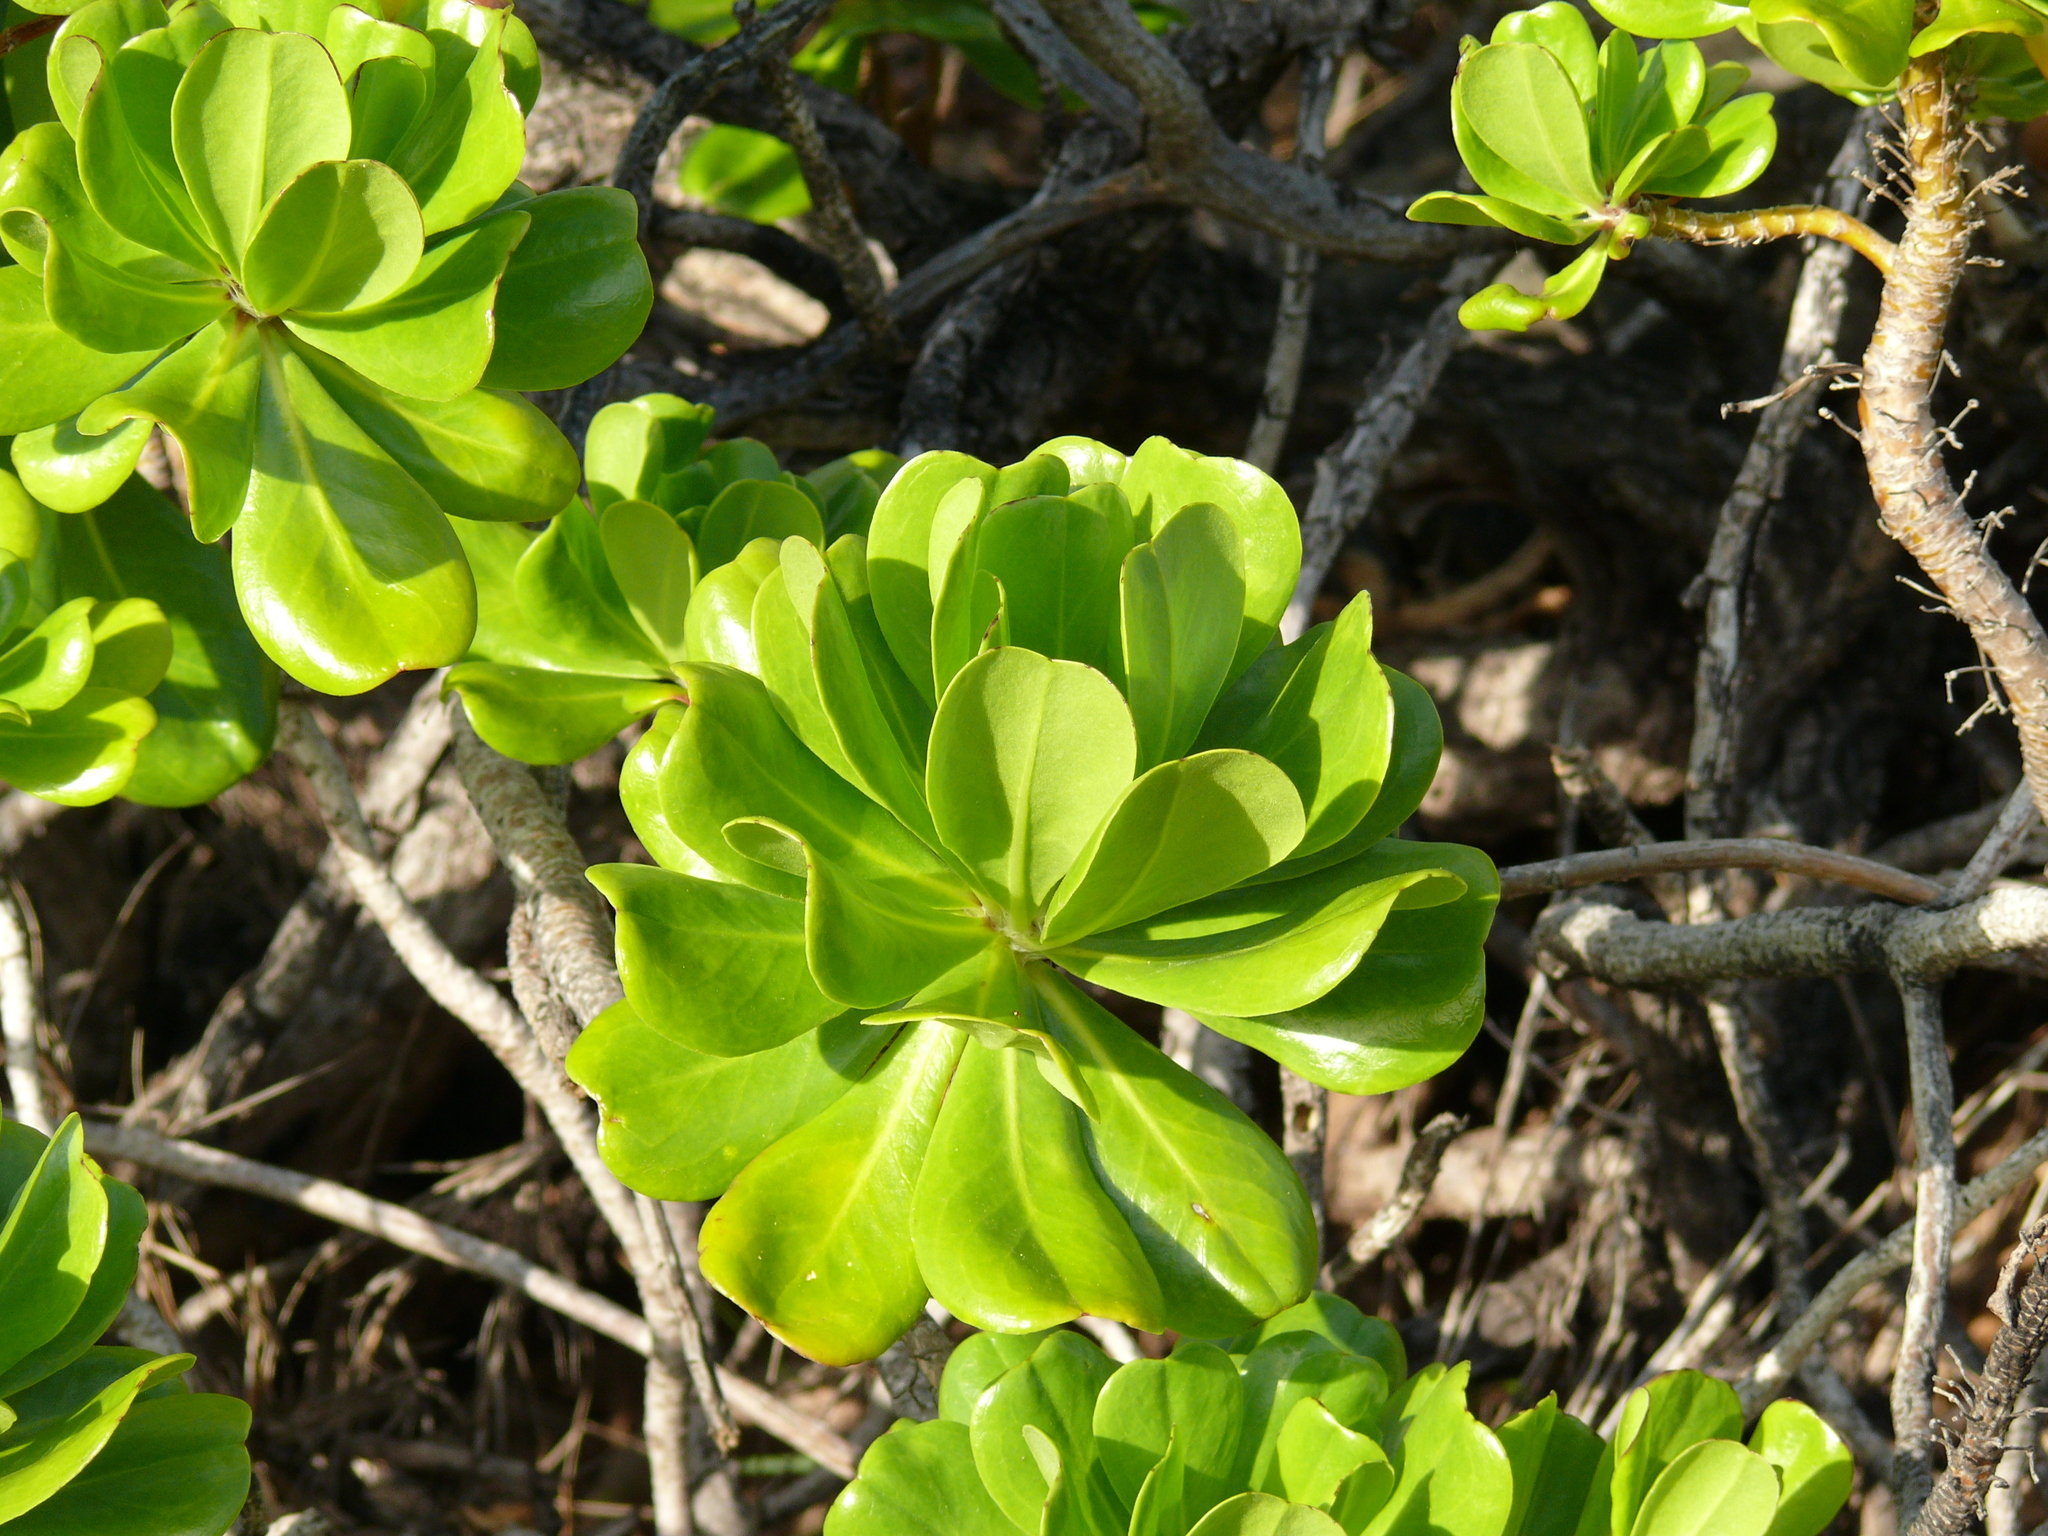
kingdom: Plantae
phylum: Tracheophyta
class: Magnoliopsida
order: Asterales
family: Goodeniaceae
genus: Scaevola
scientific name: Scaevola taccada
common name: Sea lettucetree
